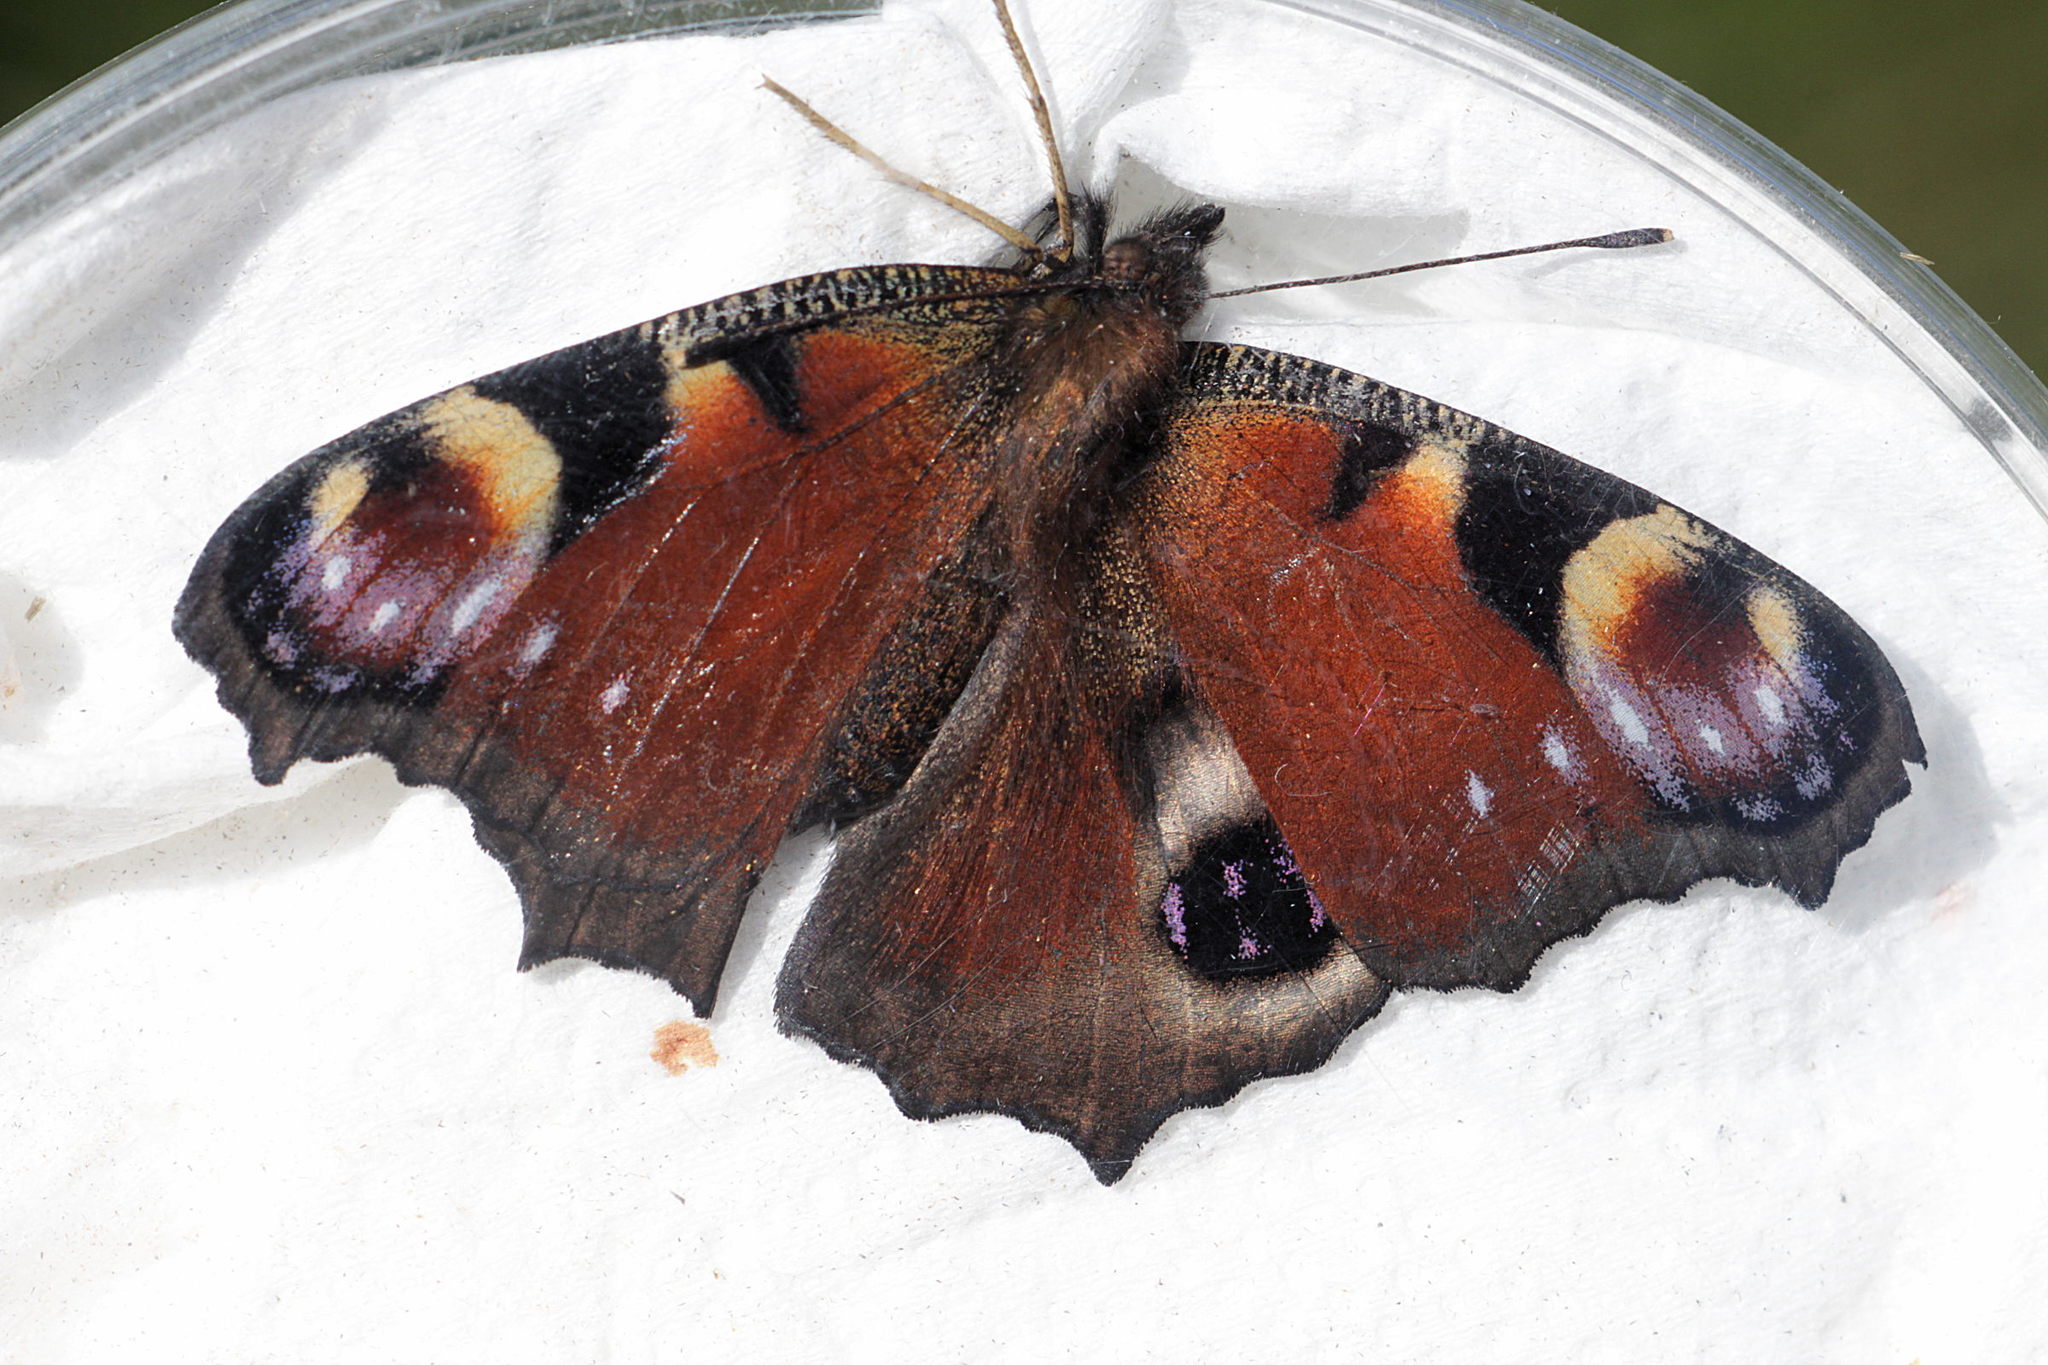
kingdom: Animalia
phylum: Arthropoda
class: Insecta
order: Lepidoptera
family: Nymphalidae
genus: Aglais
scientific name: Aglais io
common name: Peacock
